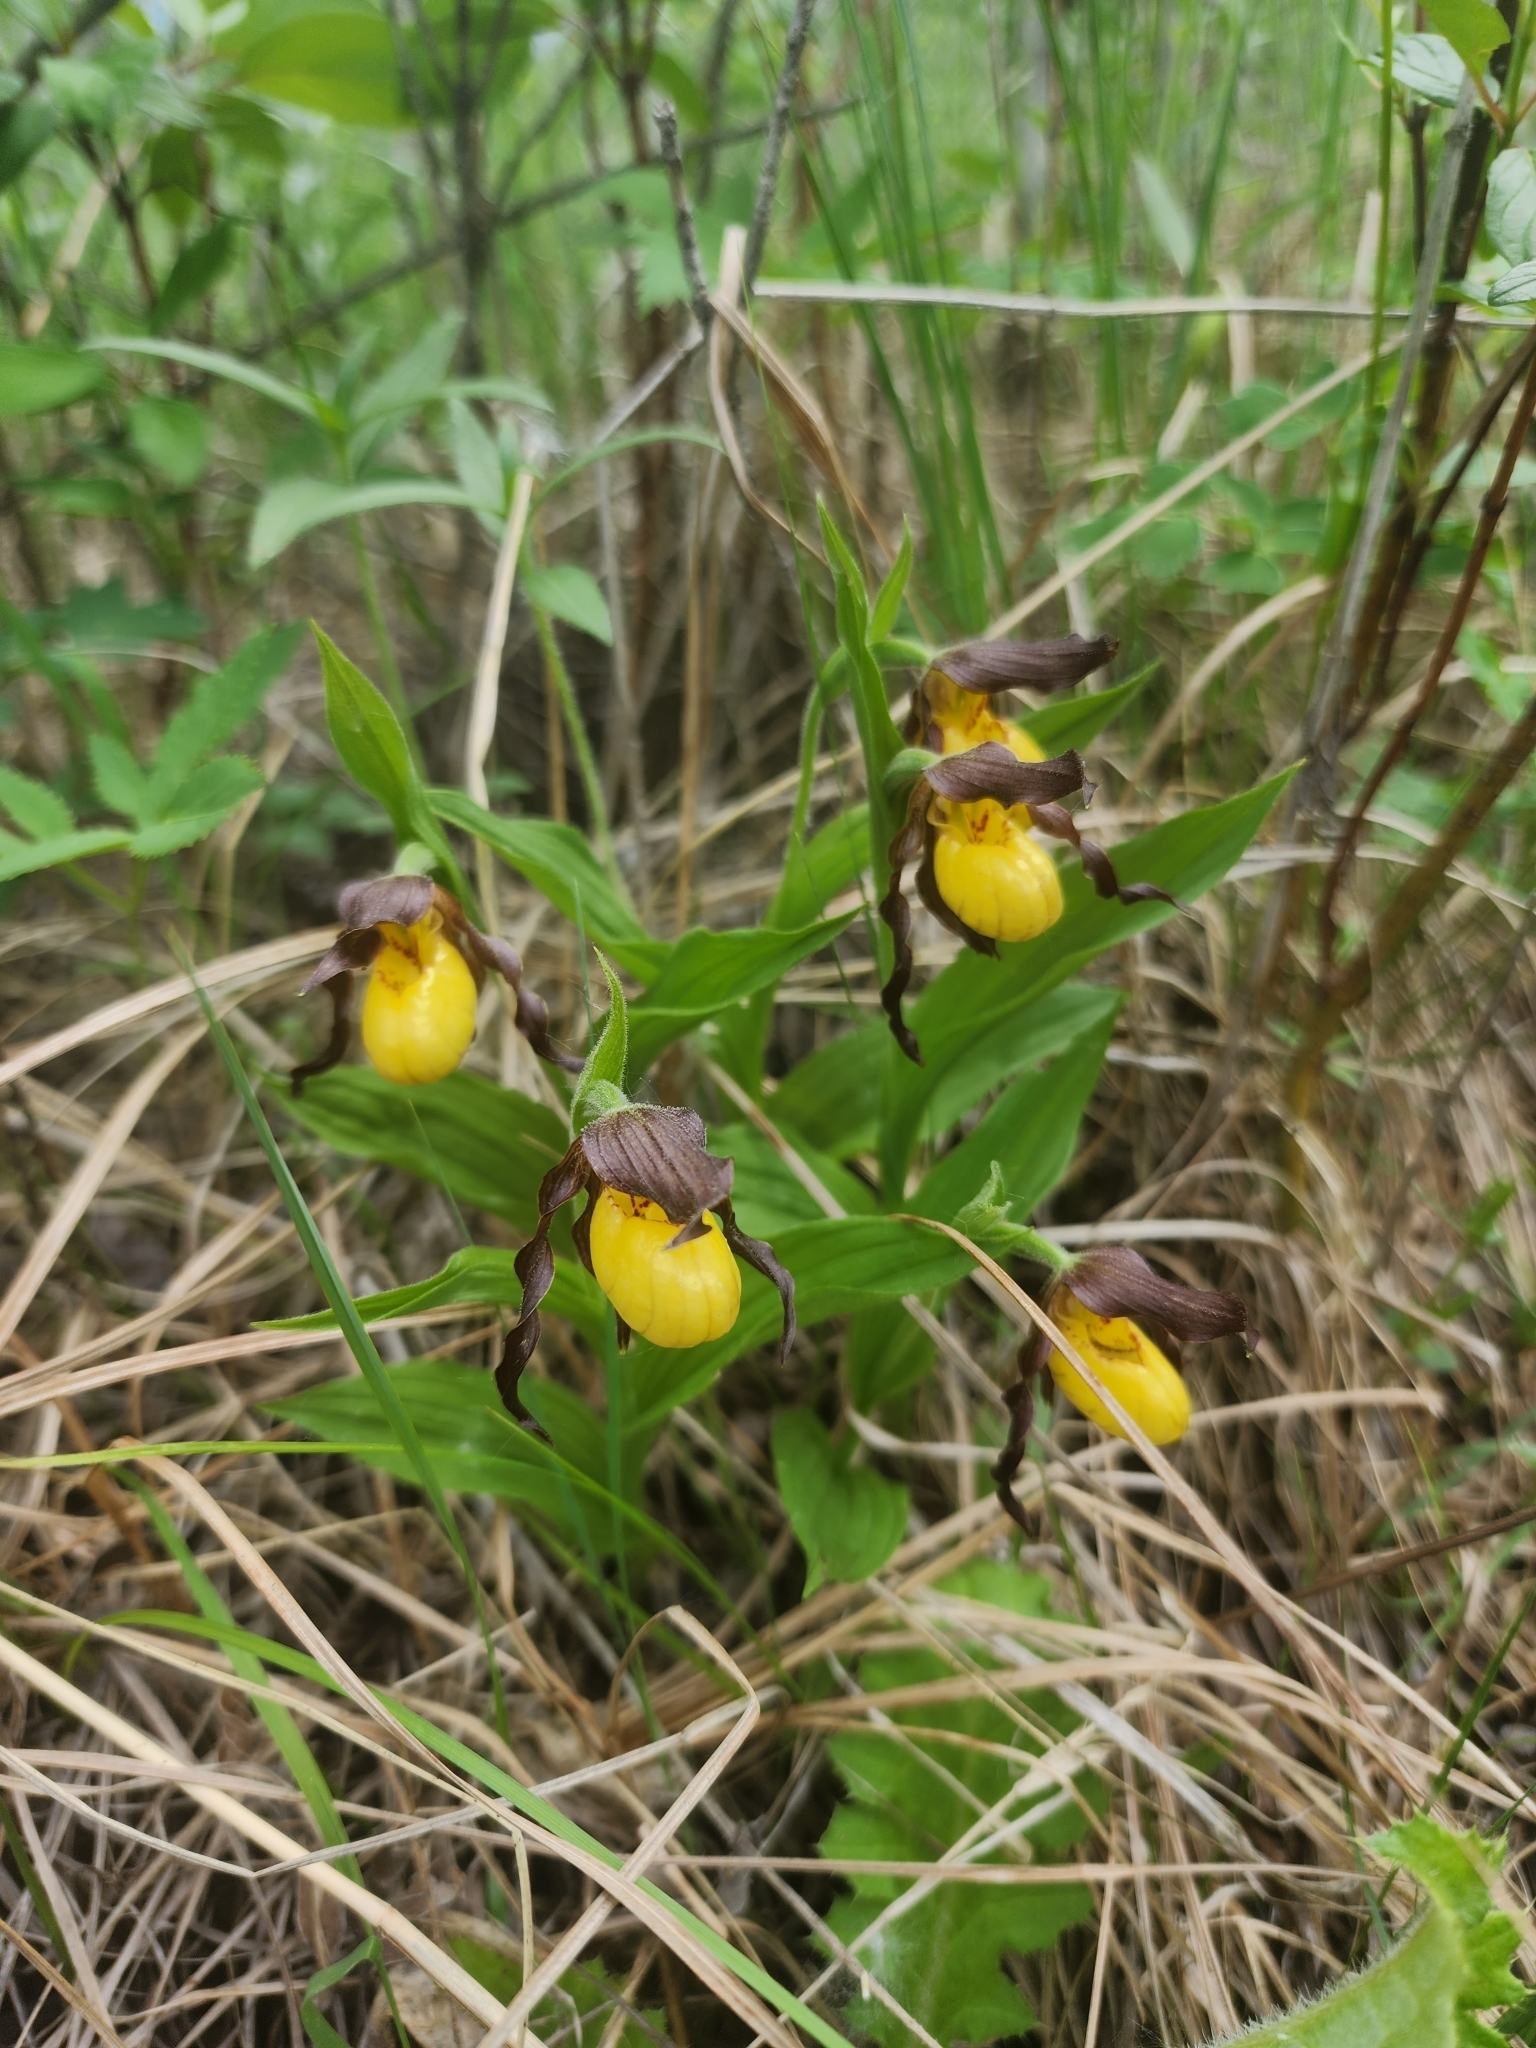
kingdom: Plantae
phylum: Tracheophyta
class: Liliopsida
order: Asparagales
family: Orchidaceae
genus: Cypripedium
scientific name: Cypripedium parviflorum
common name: American yellow lady's-slipper
